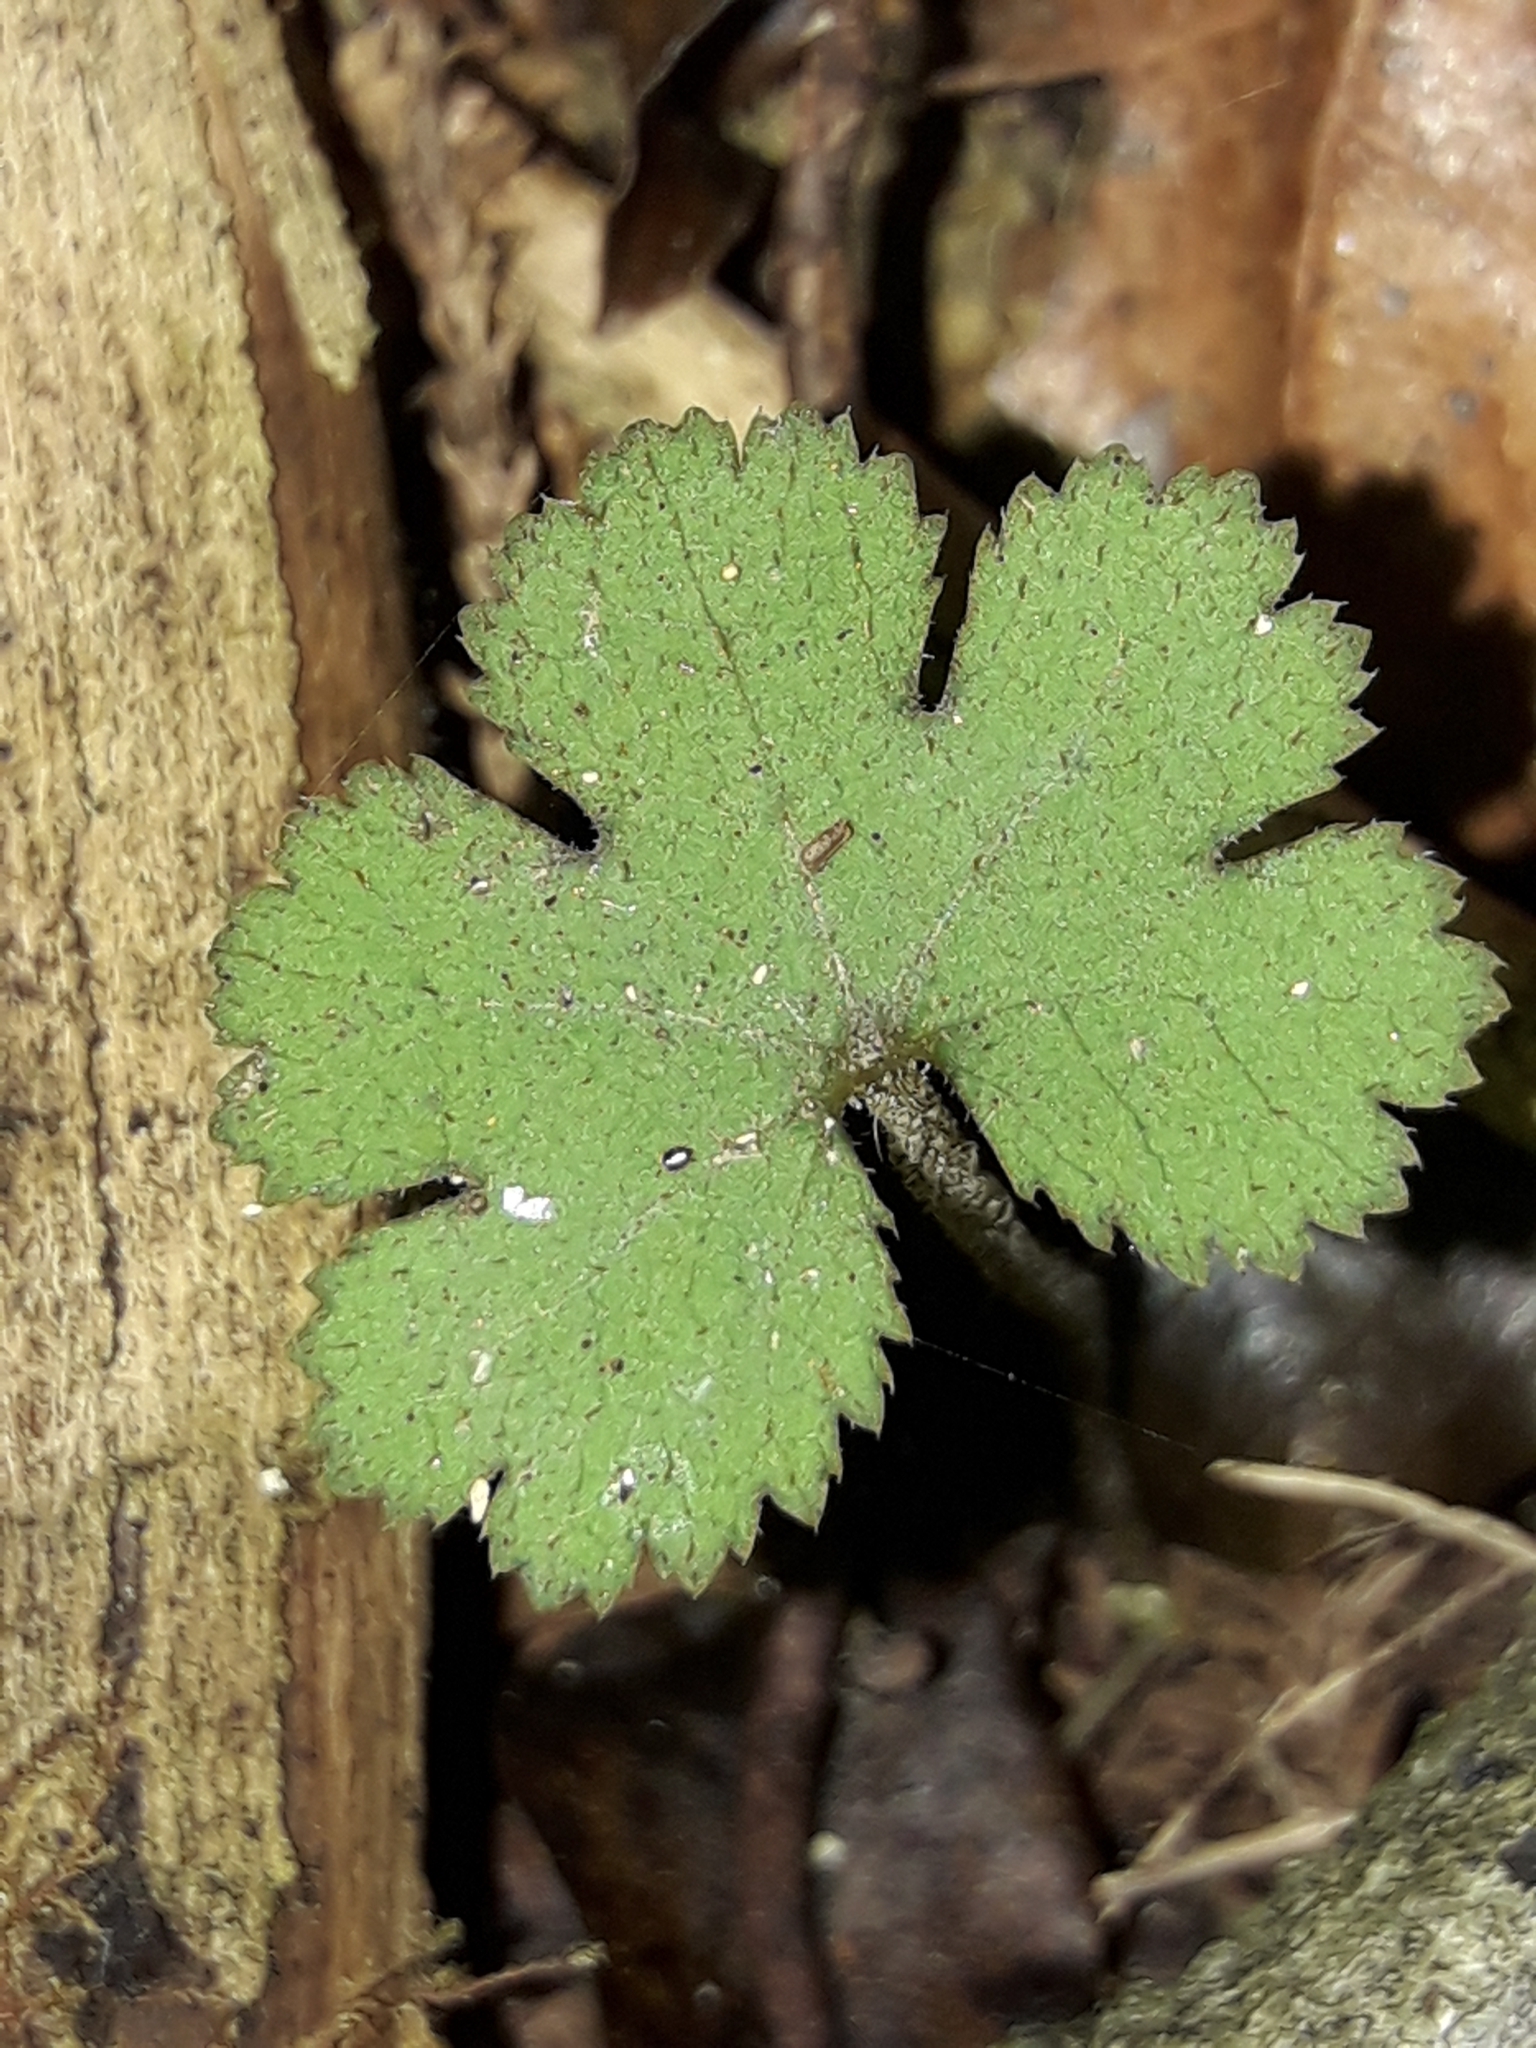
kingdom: Plantae
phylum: Tracheophyta
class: Magnoliopsida
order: Apiales
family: Araliaceae
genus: Hydrocotyle
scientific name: Hydrocotyle elongata
